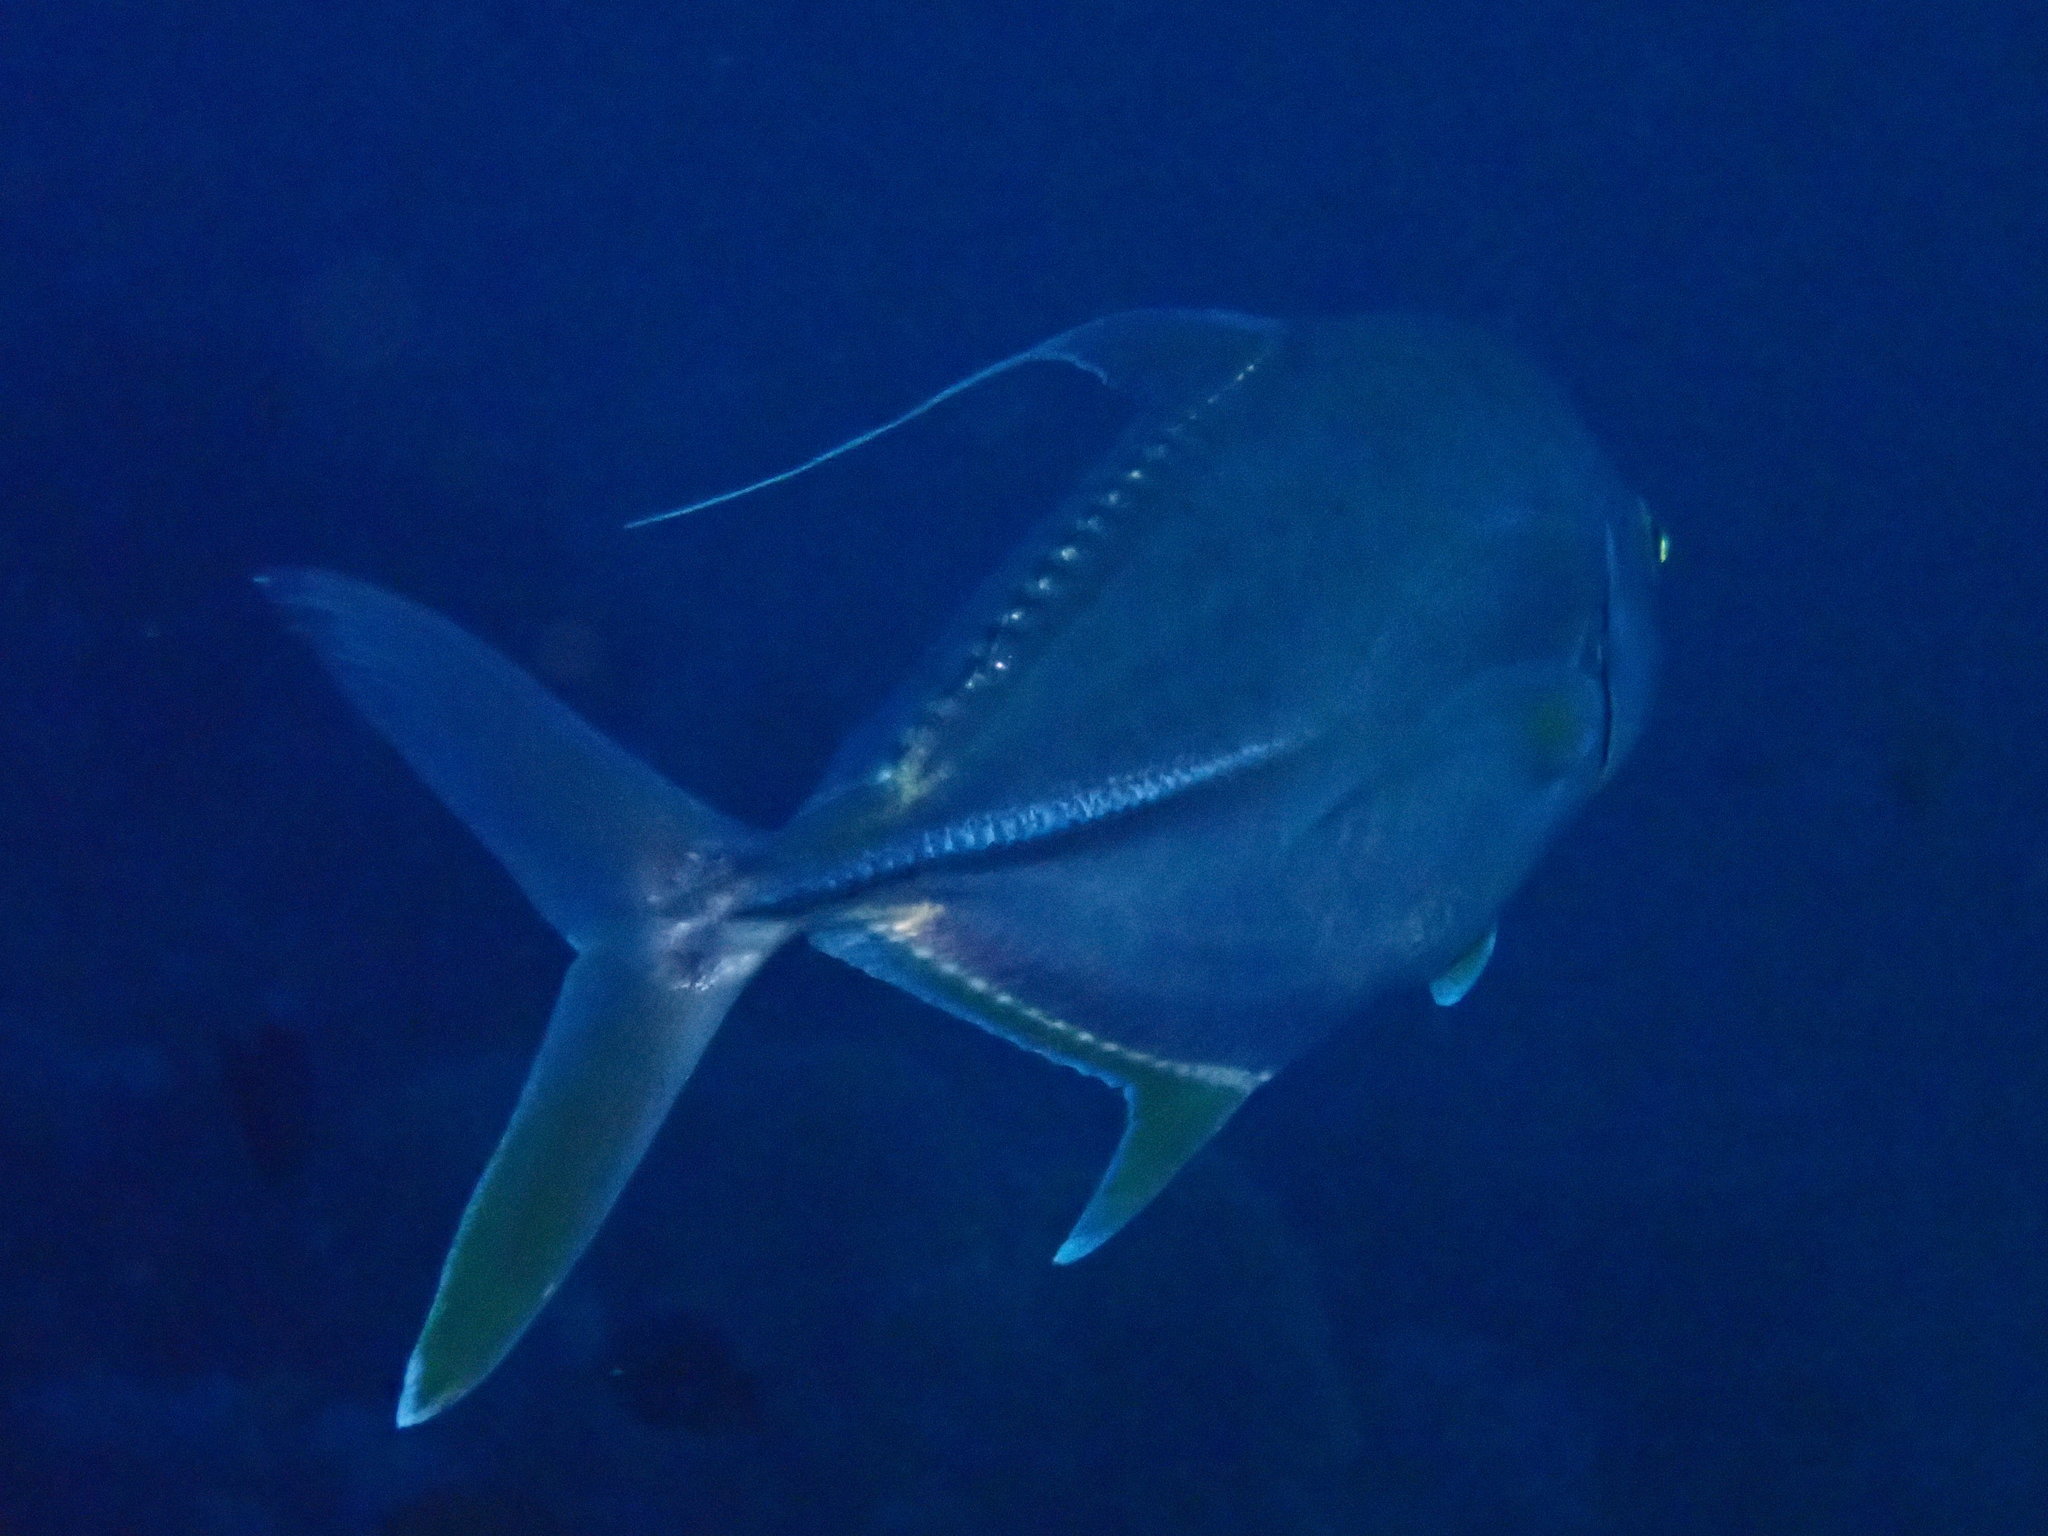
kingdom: Animalia
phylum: Chordata
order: Perciformes
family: Carangidae
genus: Carangoides
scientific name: Carangoides oblongus
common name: Coachwhip trevally
